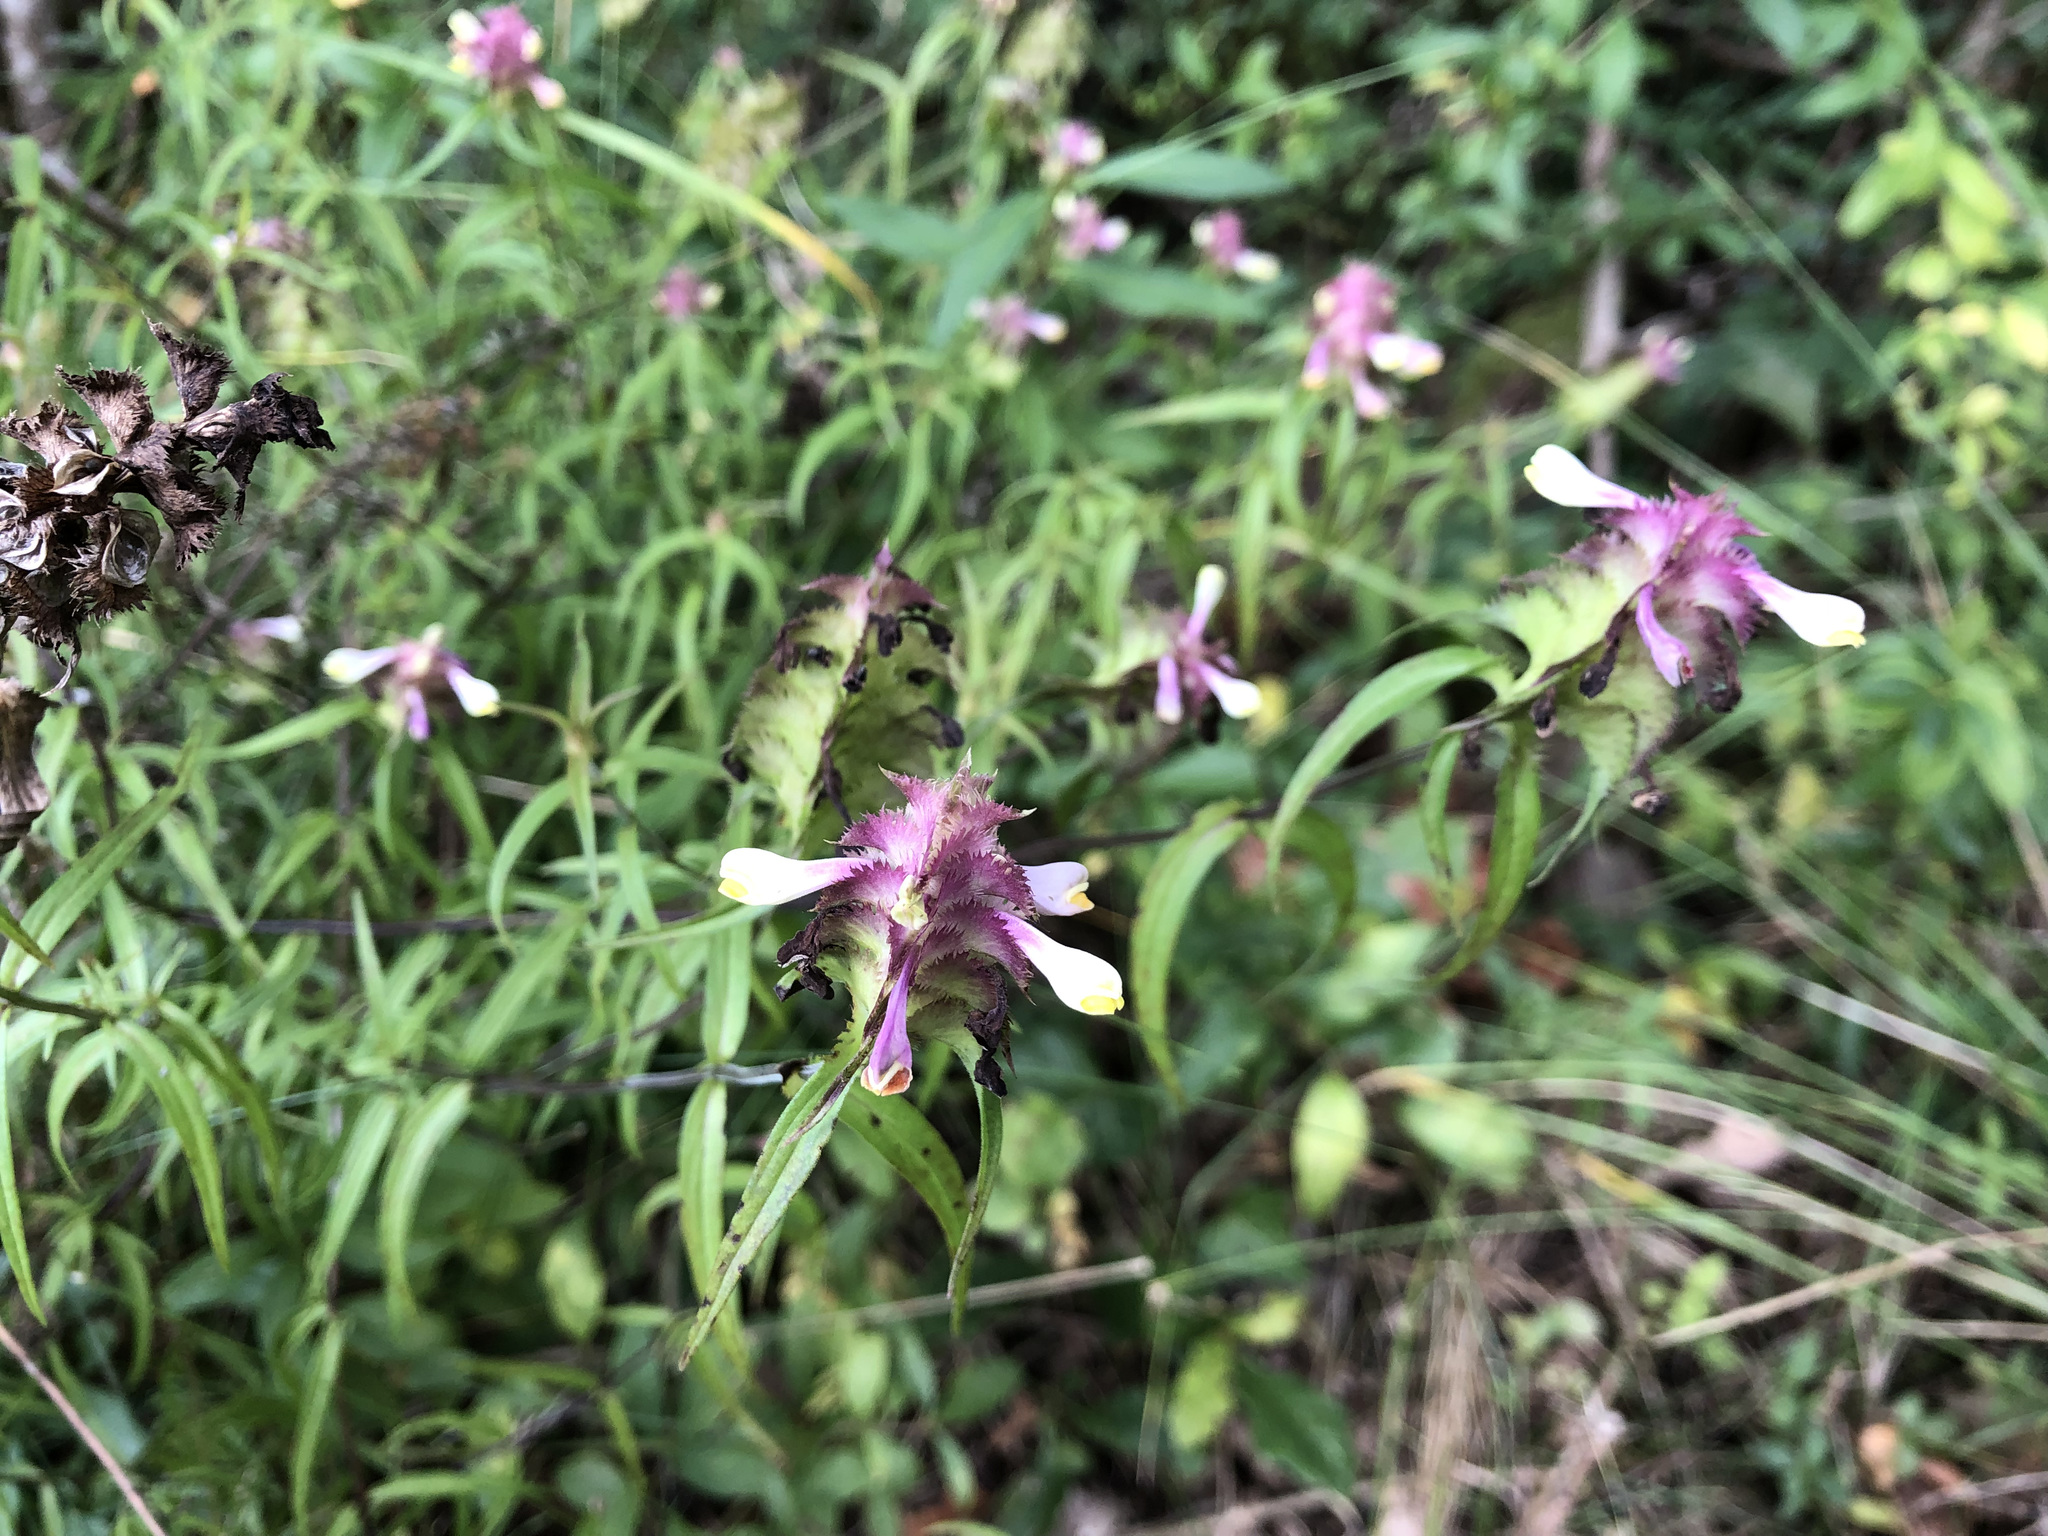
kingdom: Plantae
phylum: Tracheophyta
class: Magnoliopsida
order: Lamiales
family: Orobanchaceae
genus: Melampyrum
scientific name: Melampyrum cristatum
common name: Crested cow-wheat
